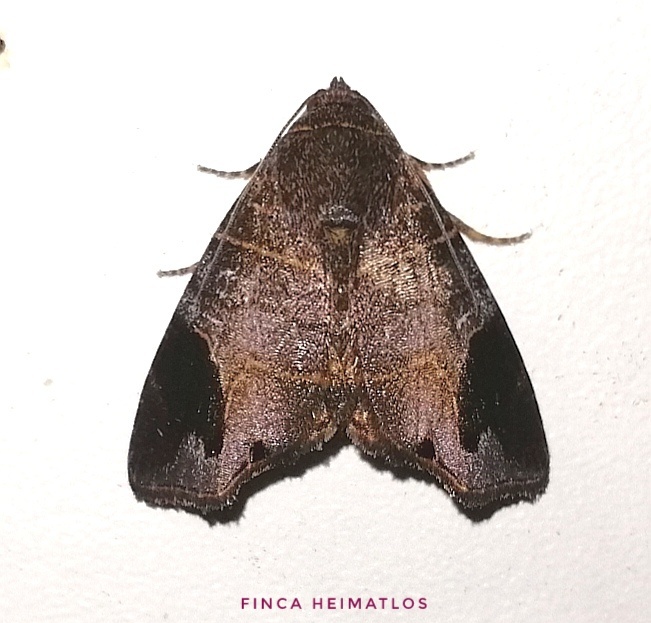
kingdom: Animalia
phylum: Arthropoda
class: Insecta
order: Lepidoptera
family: Noctuidae
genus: Closteromorpha
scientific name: Closteromorpha reniplaga
